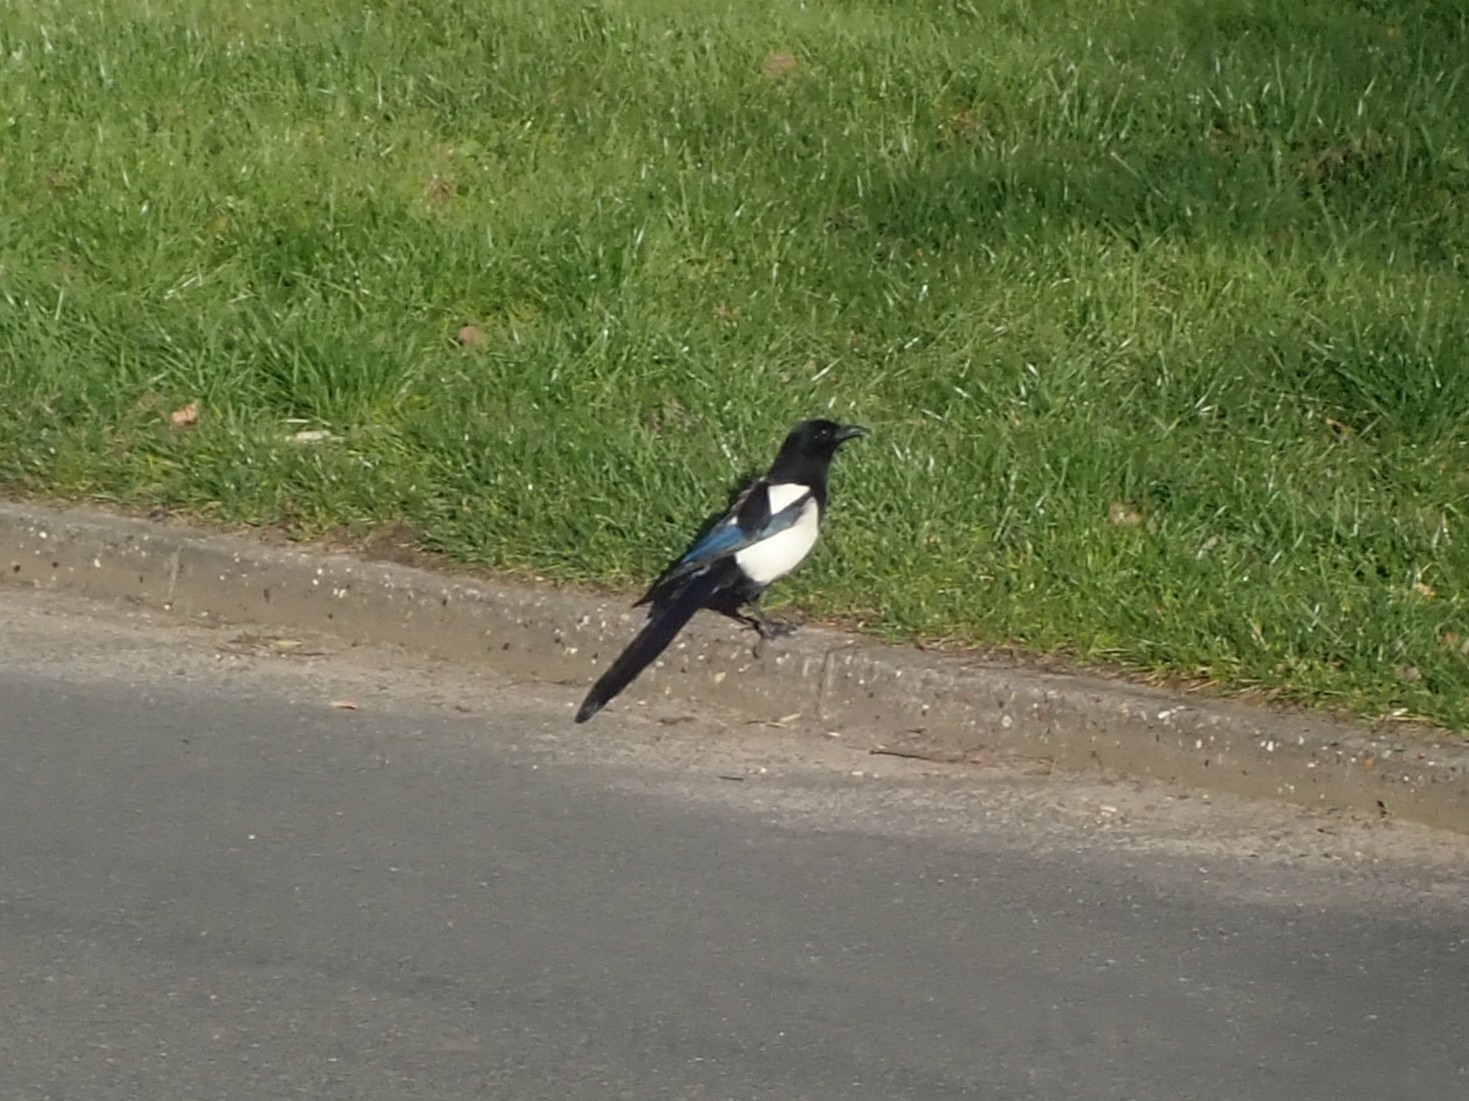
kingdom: Animalia
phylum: Chordata
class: Aves
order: Passeriformes
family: Corvidae
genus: Pica
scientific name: Pica pica
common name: Eurasian magpie
